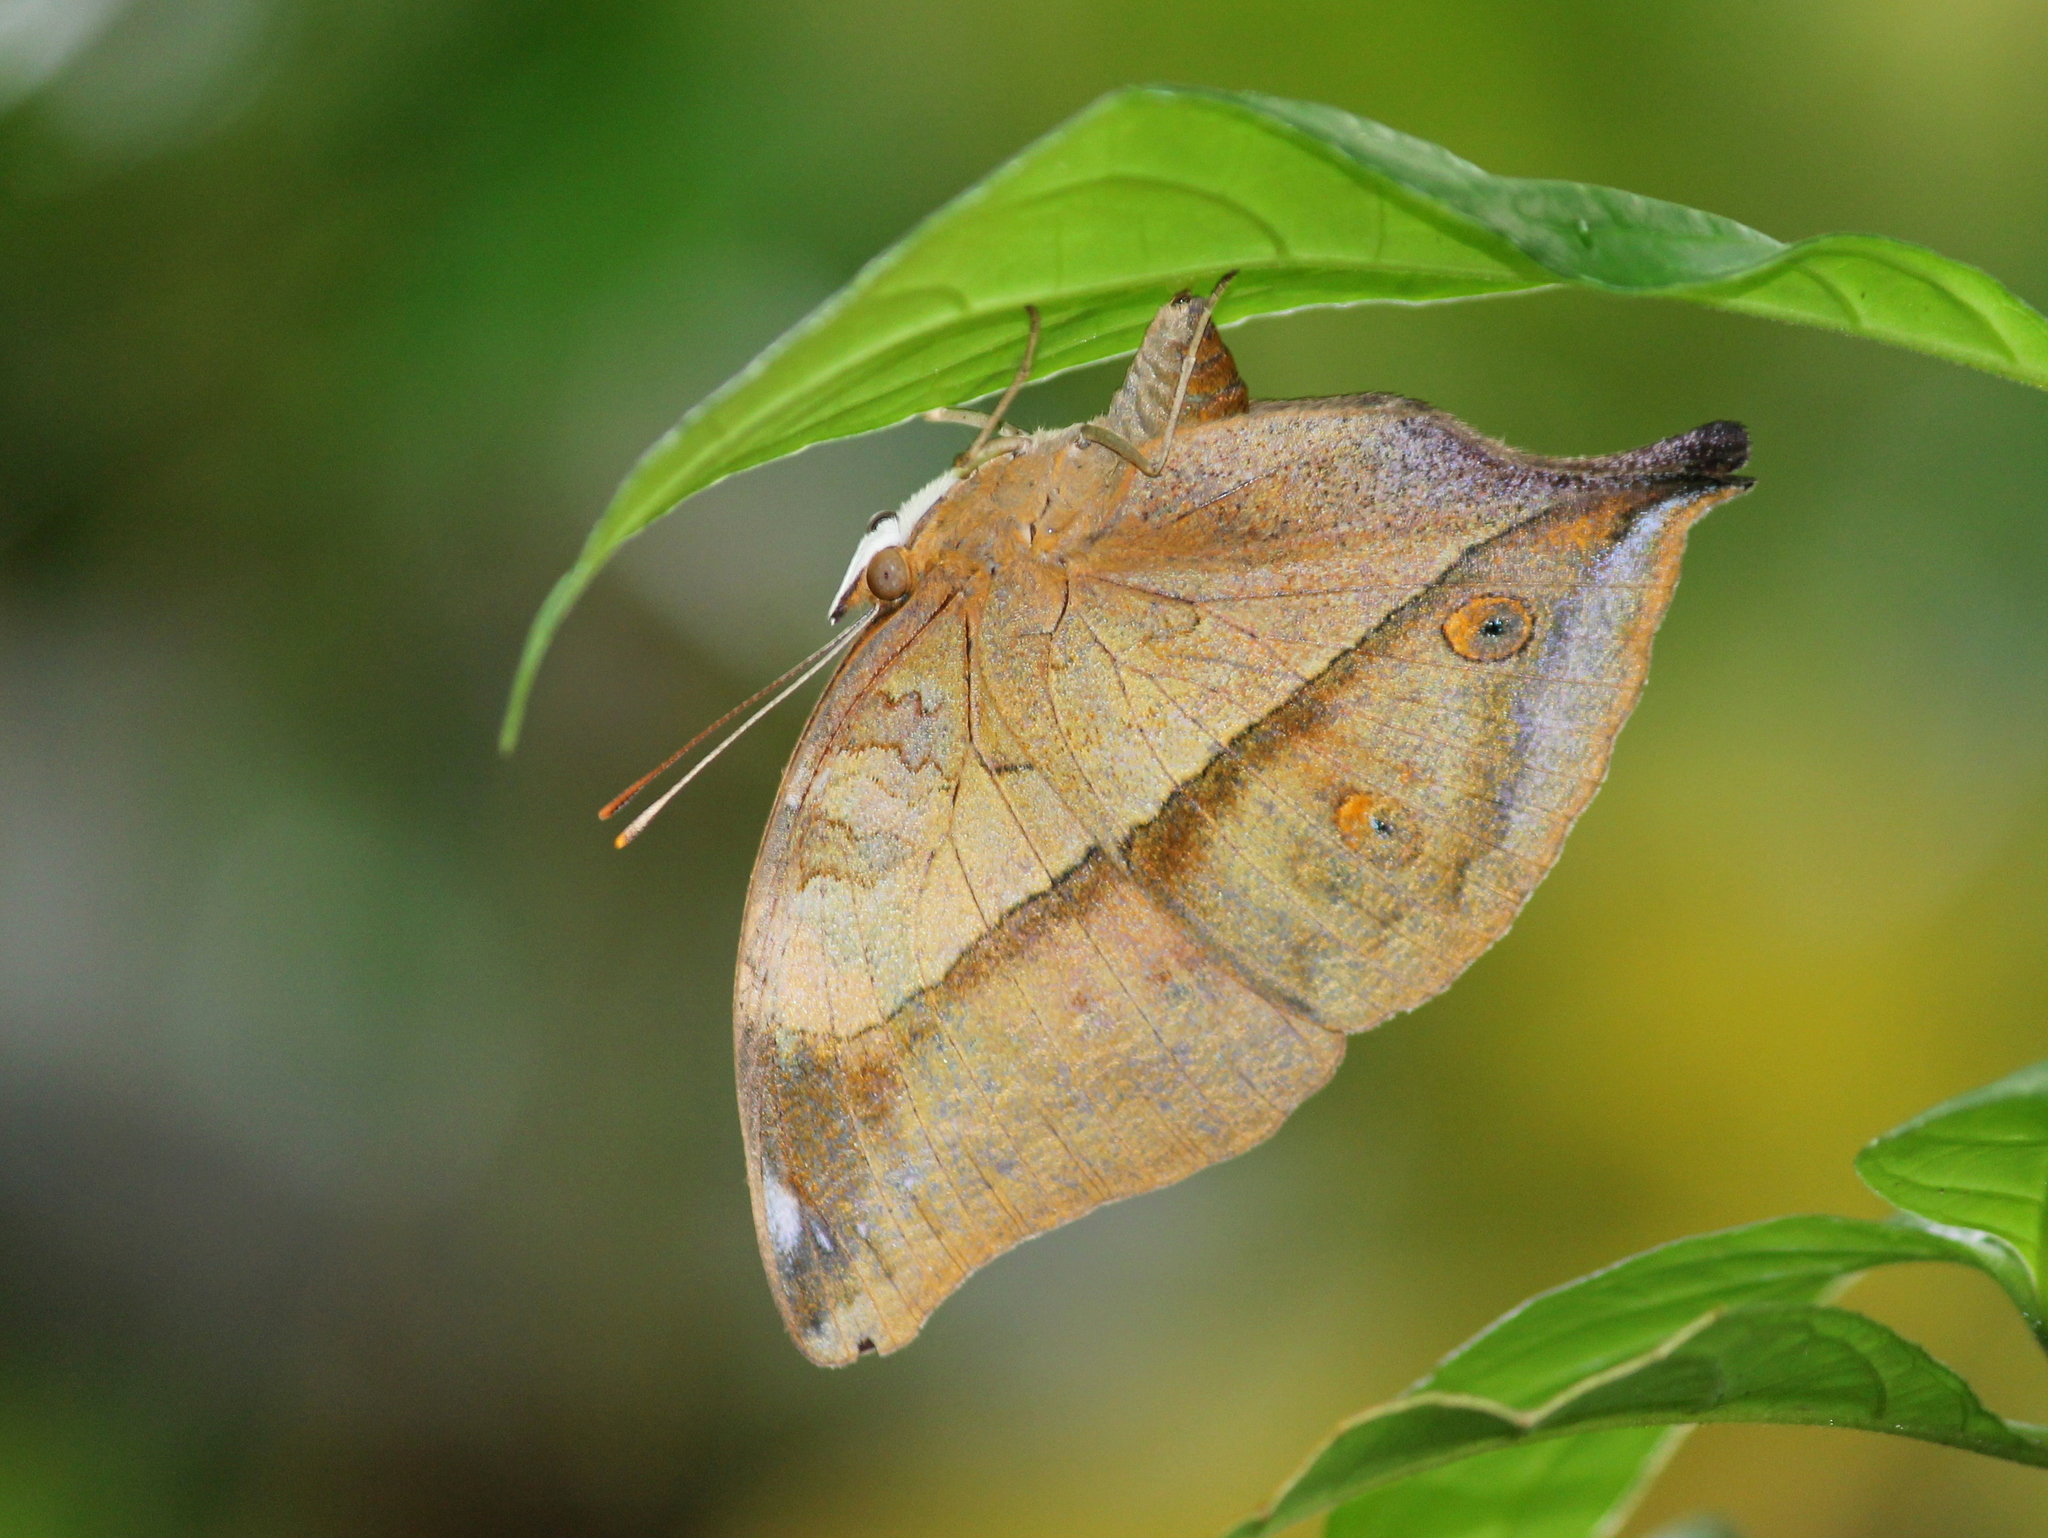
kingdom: Animalia
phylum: Arthropoda
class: Insecta
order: Lepidoptera
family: Nymphalidae
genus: Doleschallia
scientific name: Doleschallia bisaltide
